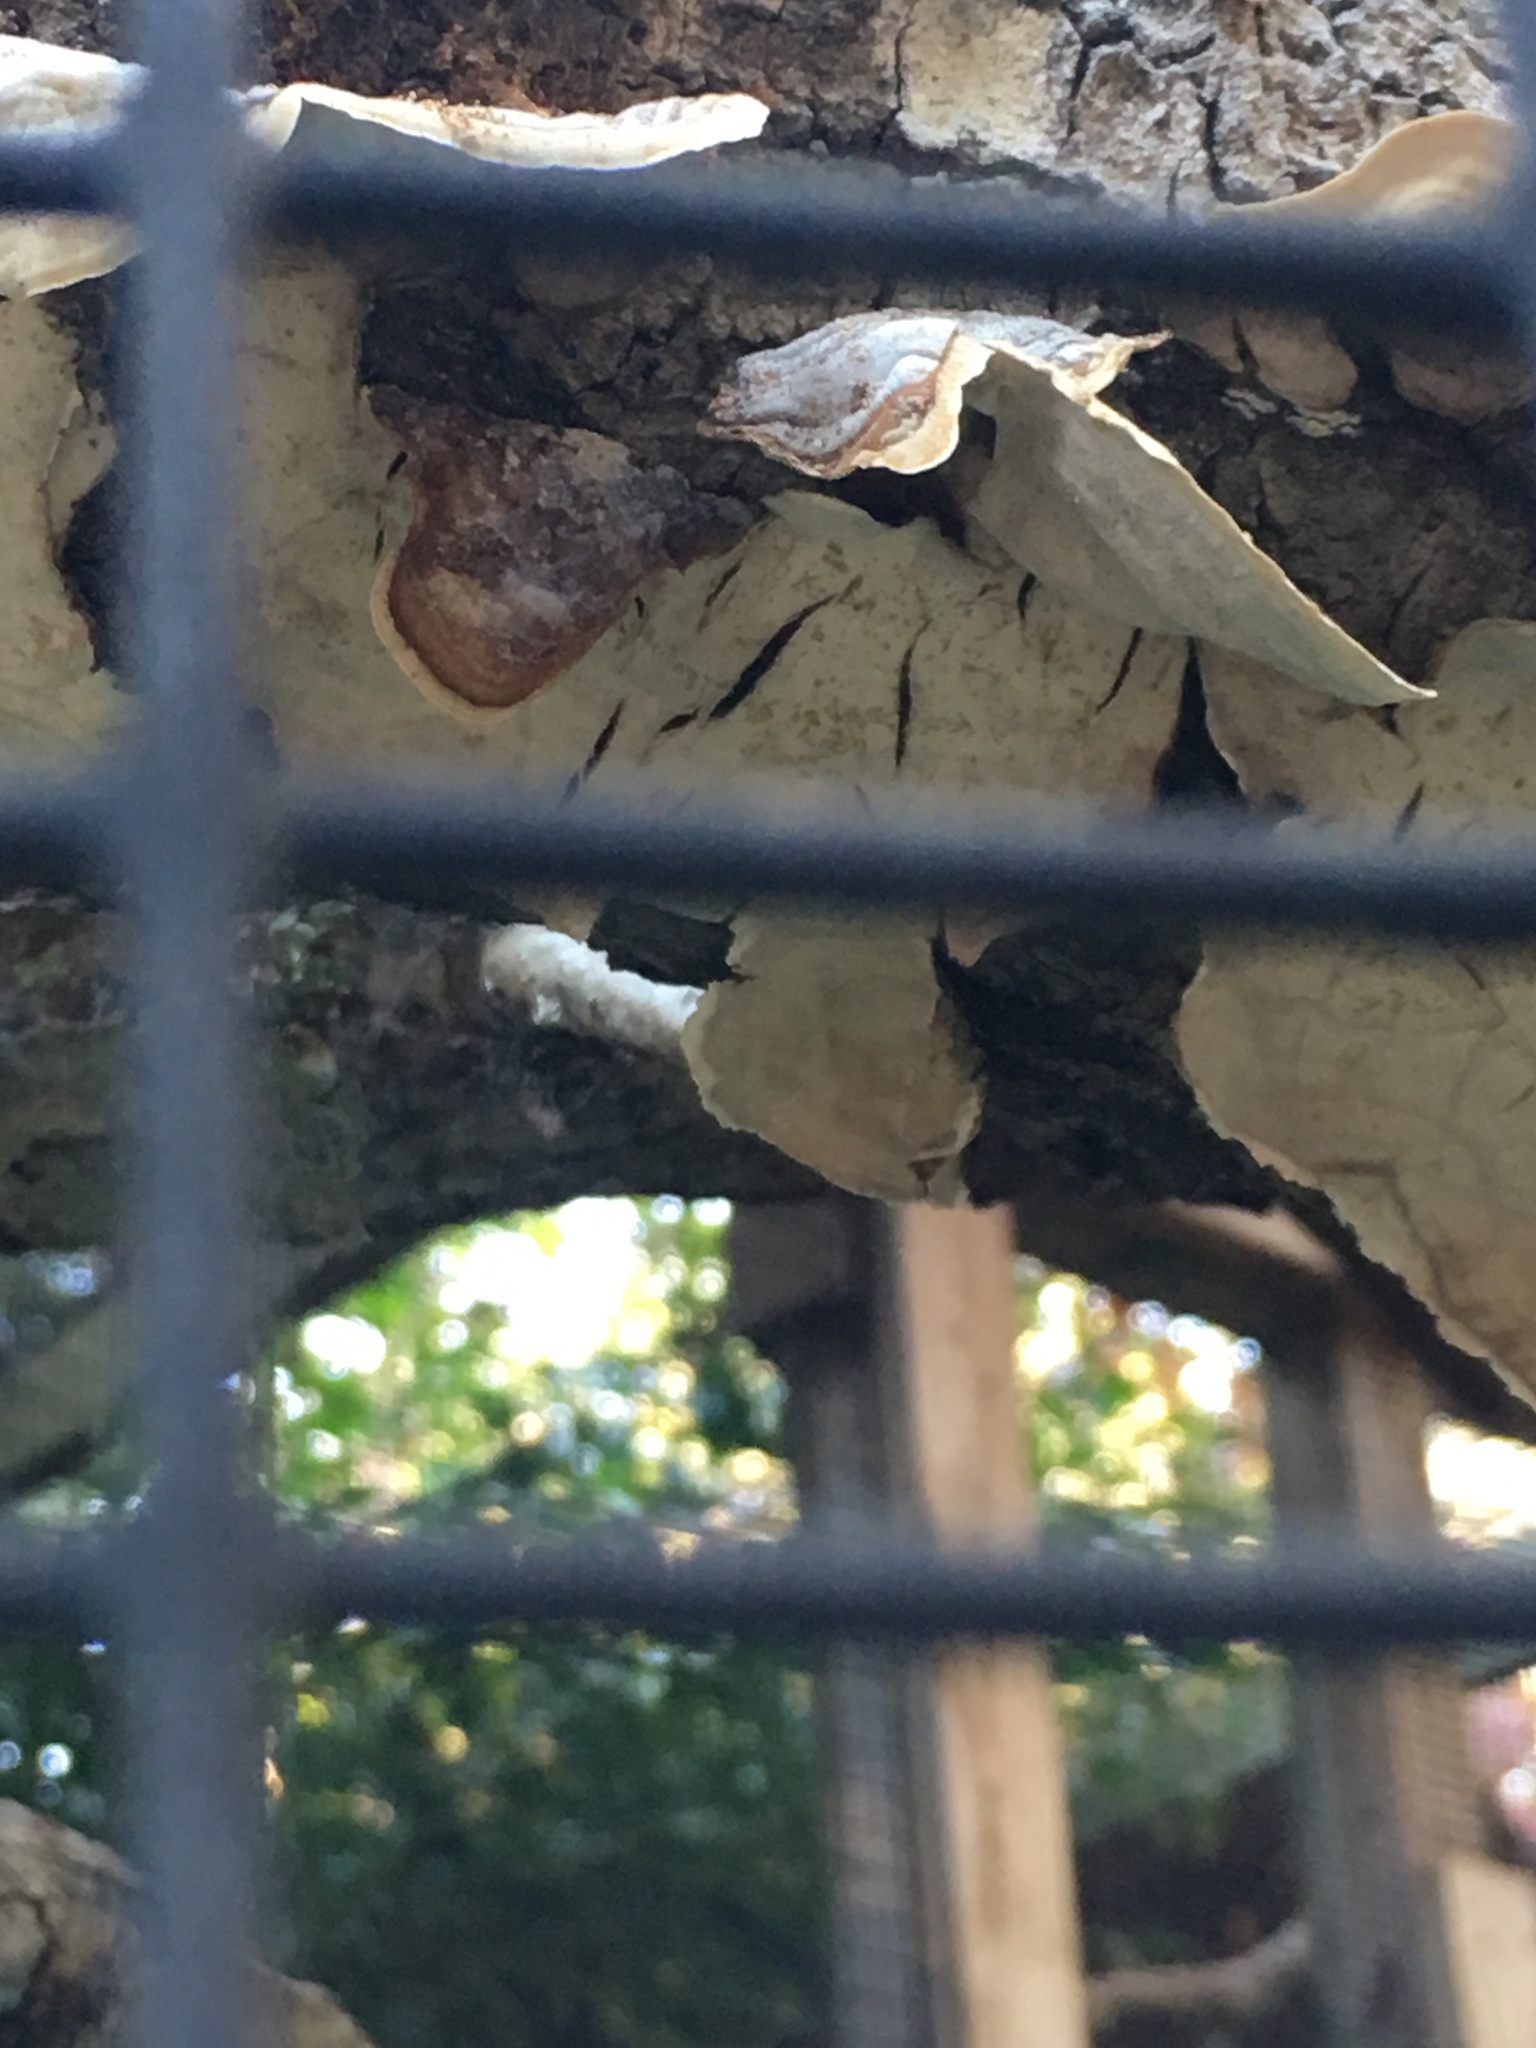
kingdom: Fungi
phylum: Basidiomycota
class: Agaricomycetes
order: Russulales
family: Stereaceae
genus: Stereum
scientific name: Stereum ostrea
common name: False turkeytail
